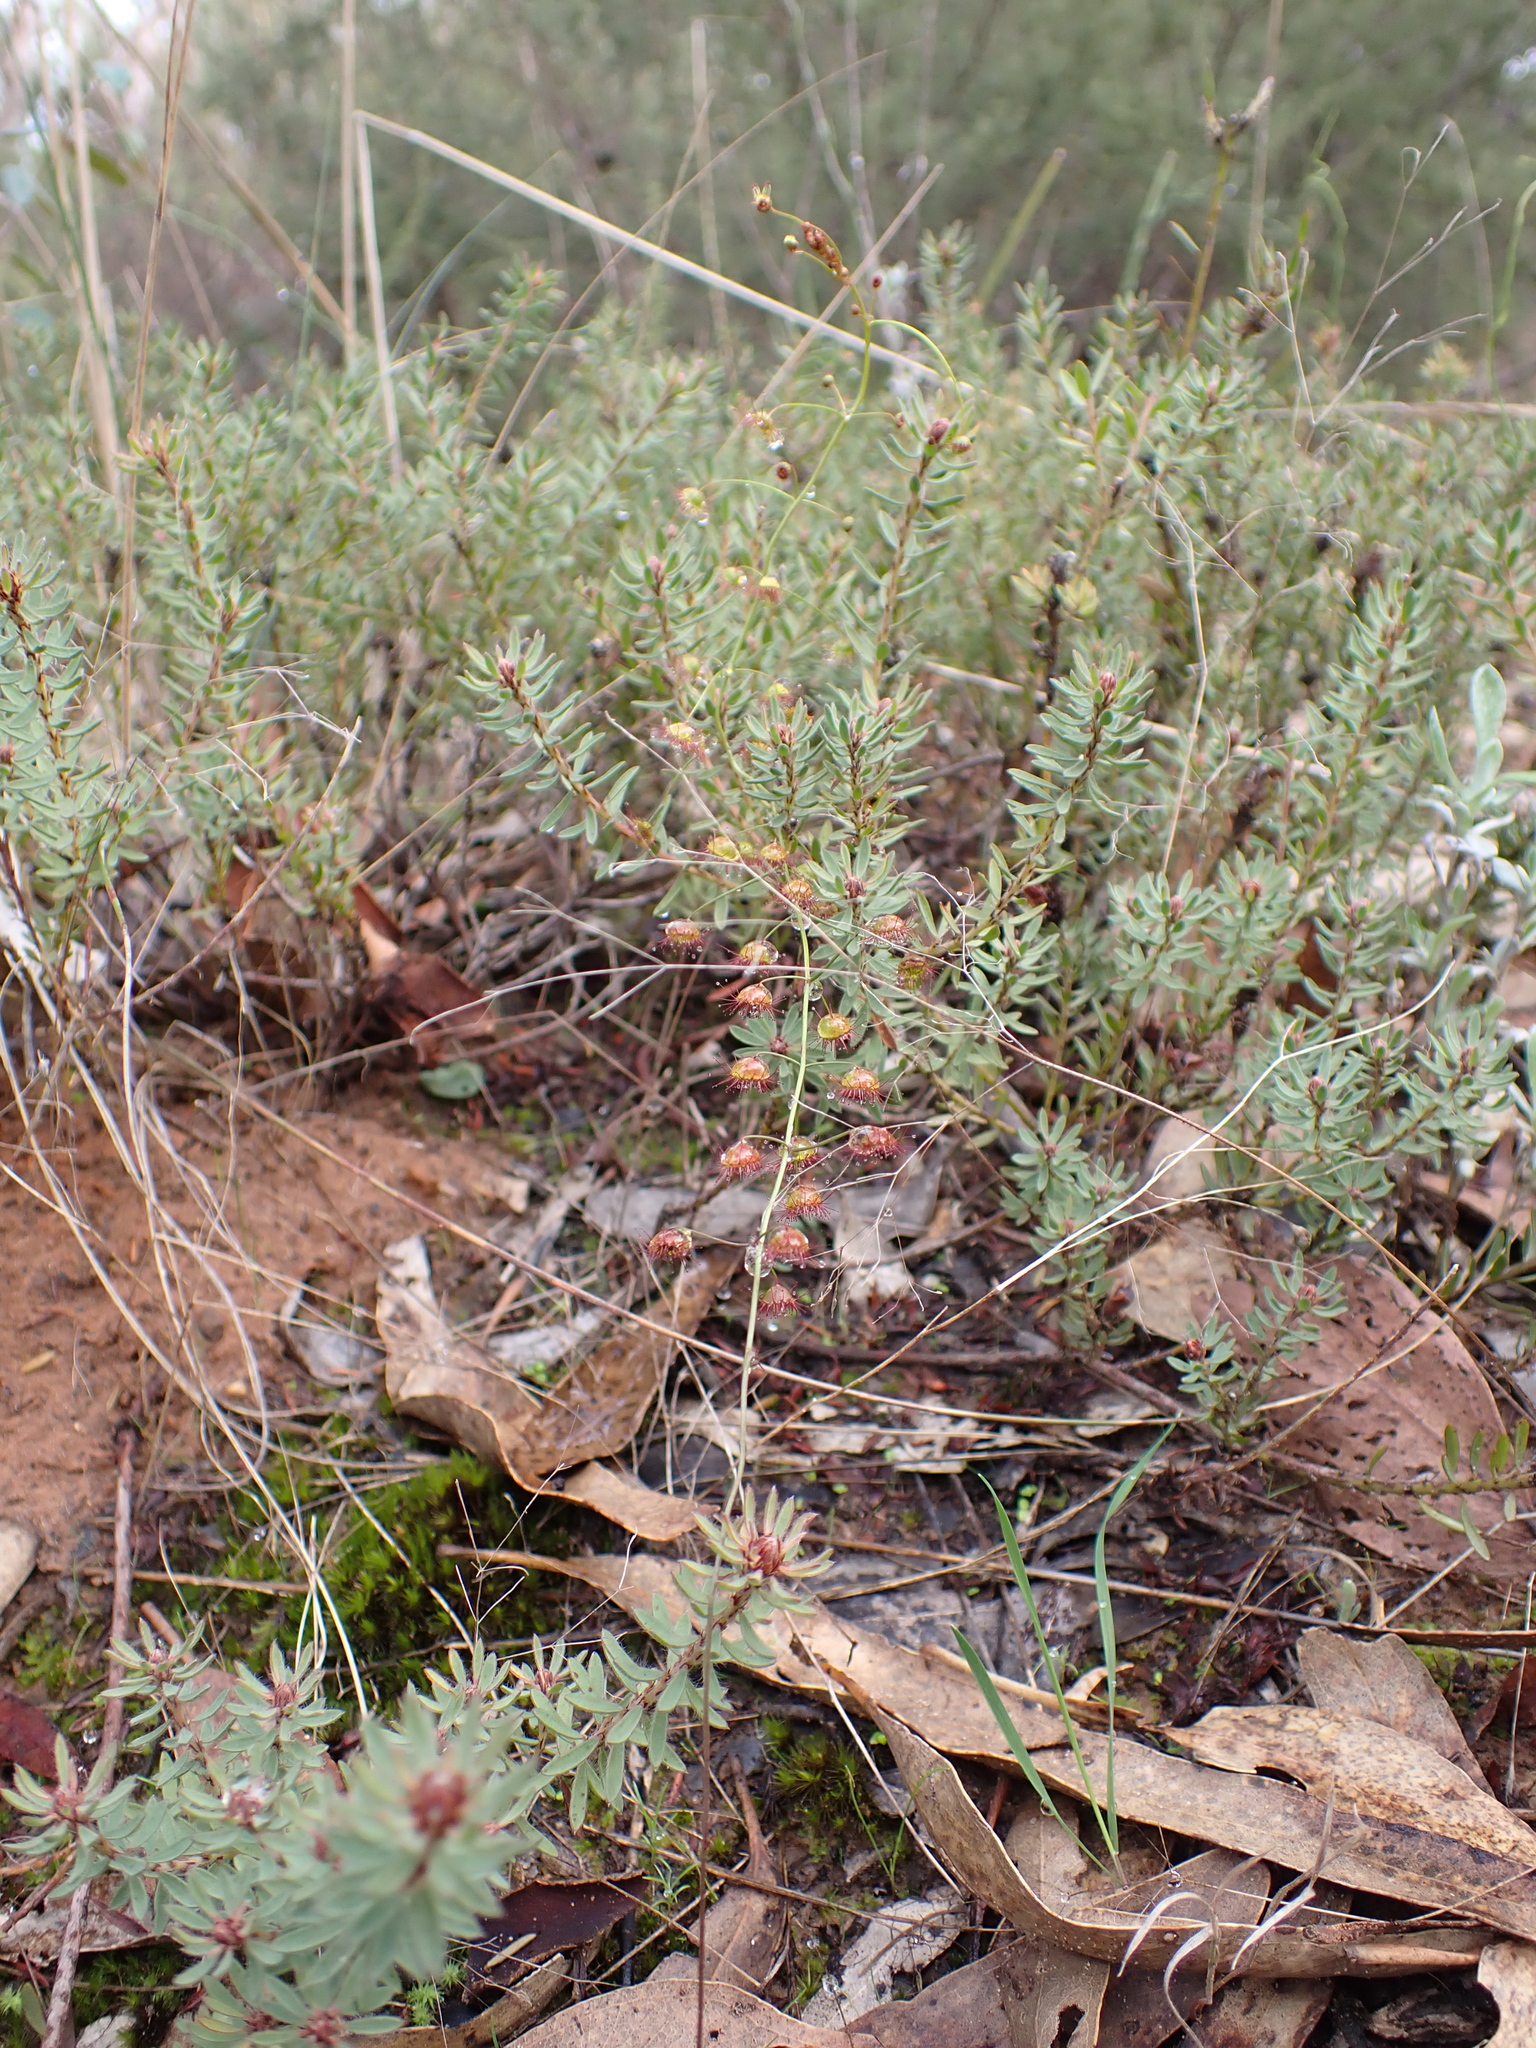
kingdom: Plantae
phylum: Tracheophyta
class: Magnoliopsida
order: Caryophyllales
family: Droseraceae
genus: Drosera
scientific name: Drosera planchonii
